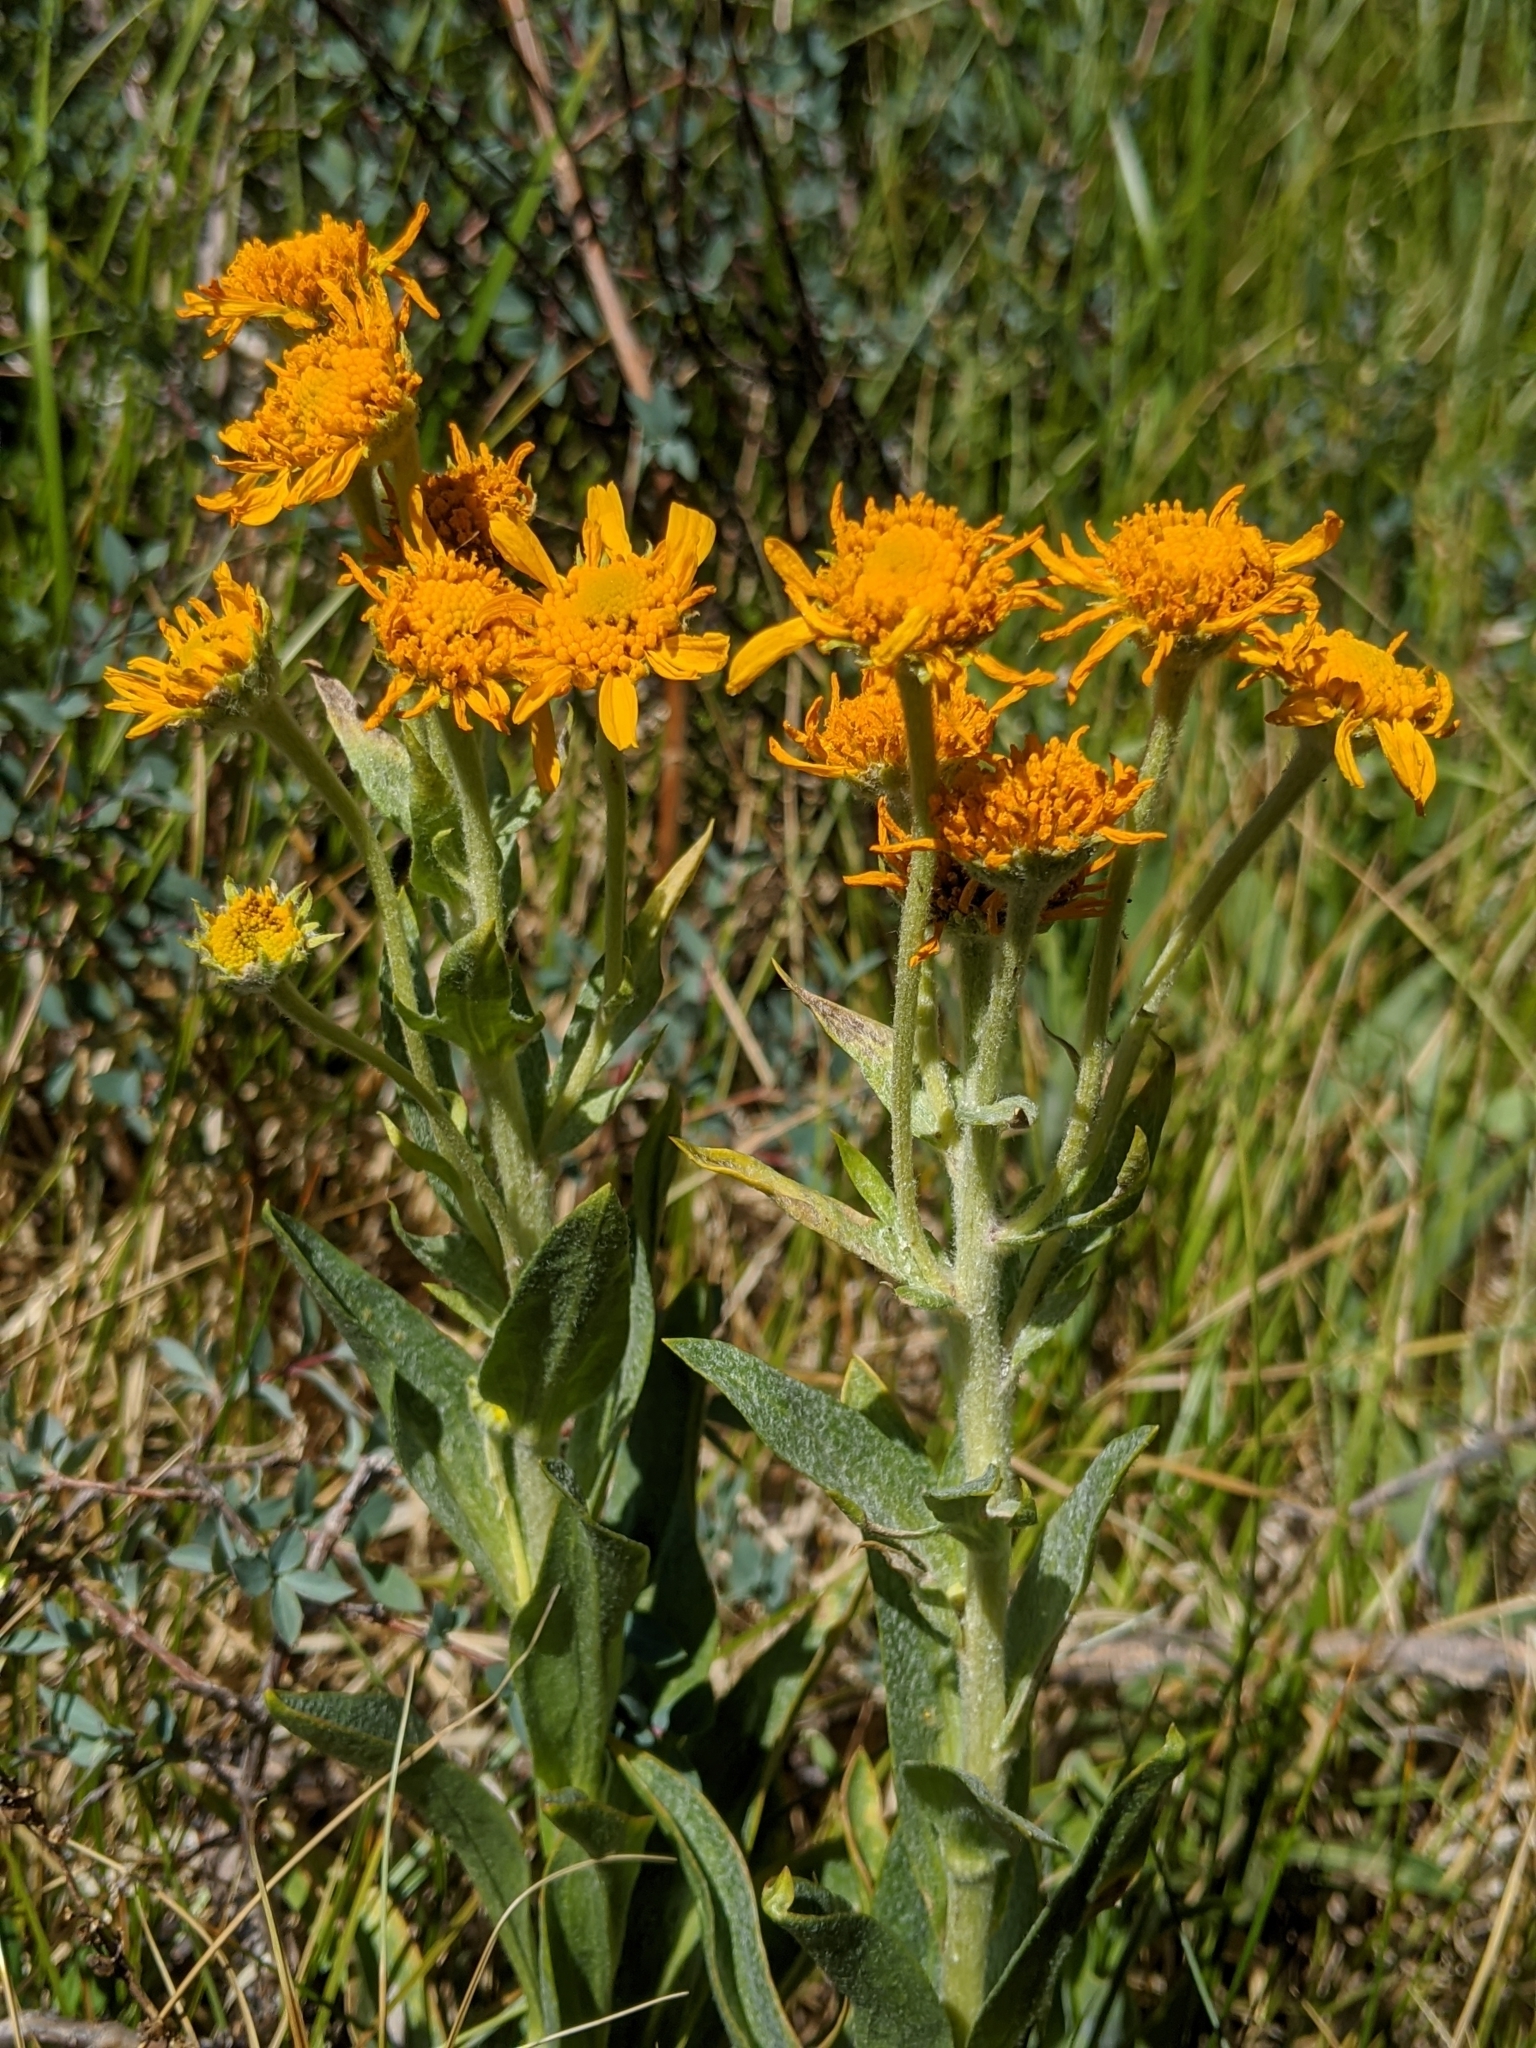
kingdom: Plantae
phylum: Tracheophyta
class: Magnoliopsida
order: Asterales
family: Asteraceae
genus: Hymenoxys
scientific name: Hymenoxys hoopesii
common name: Orange-sneezeweed
